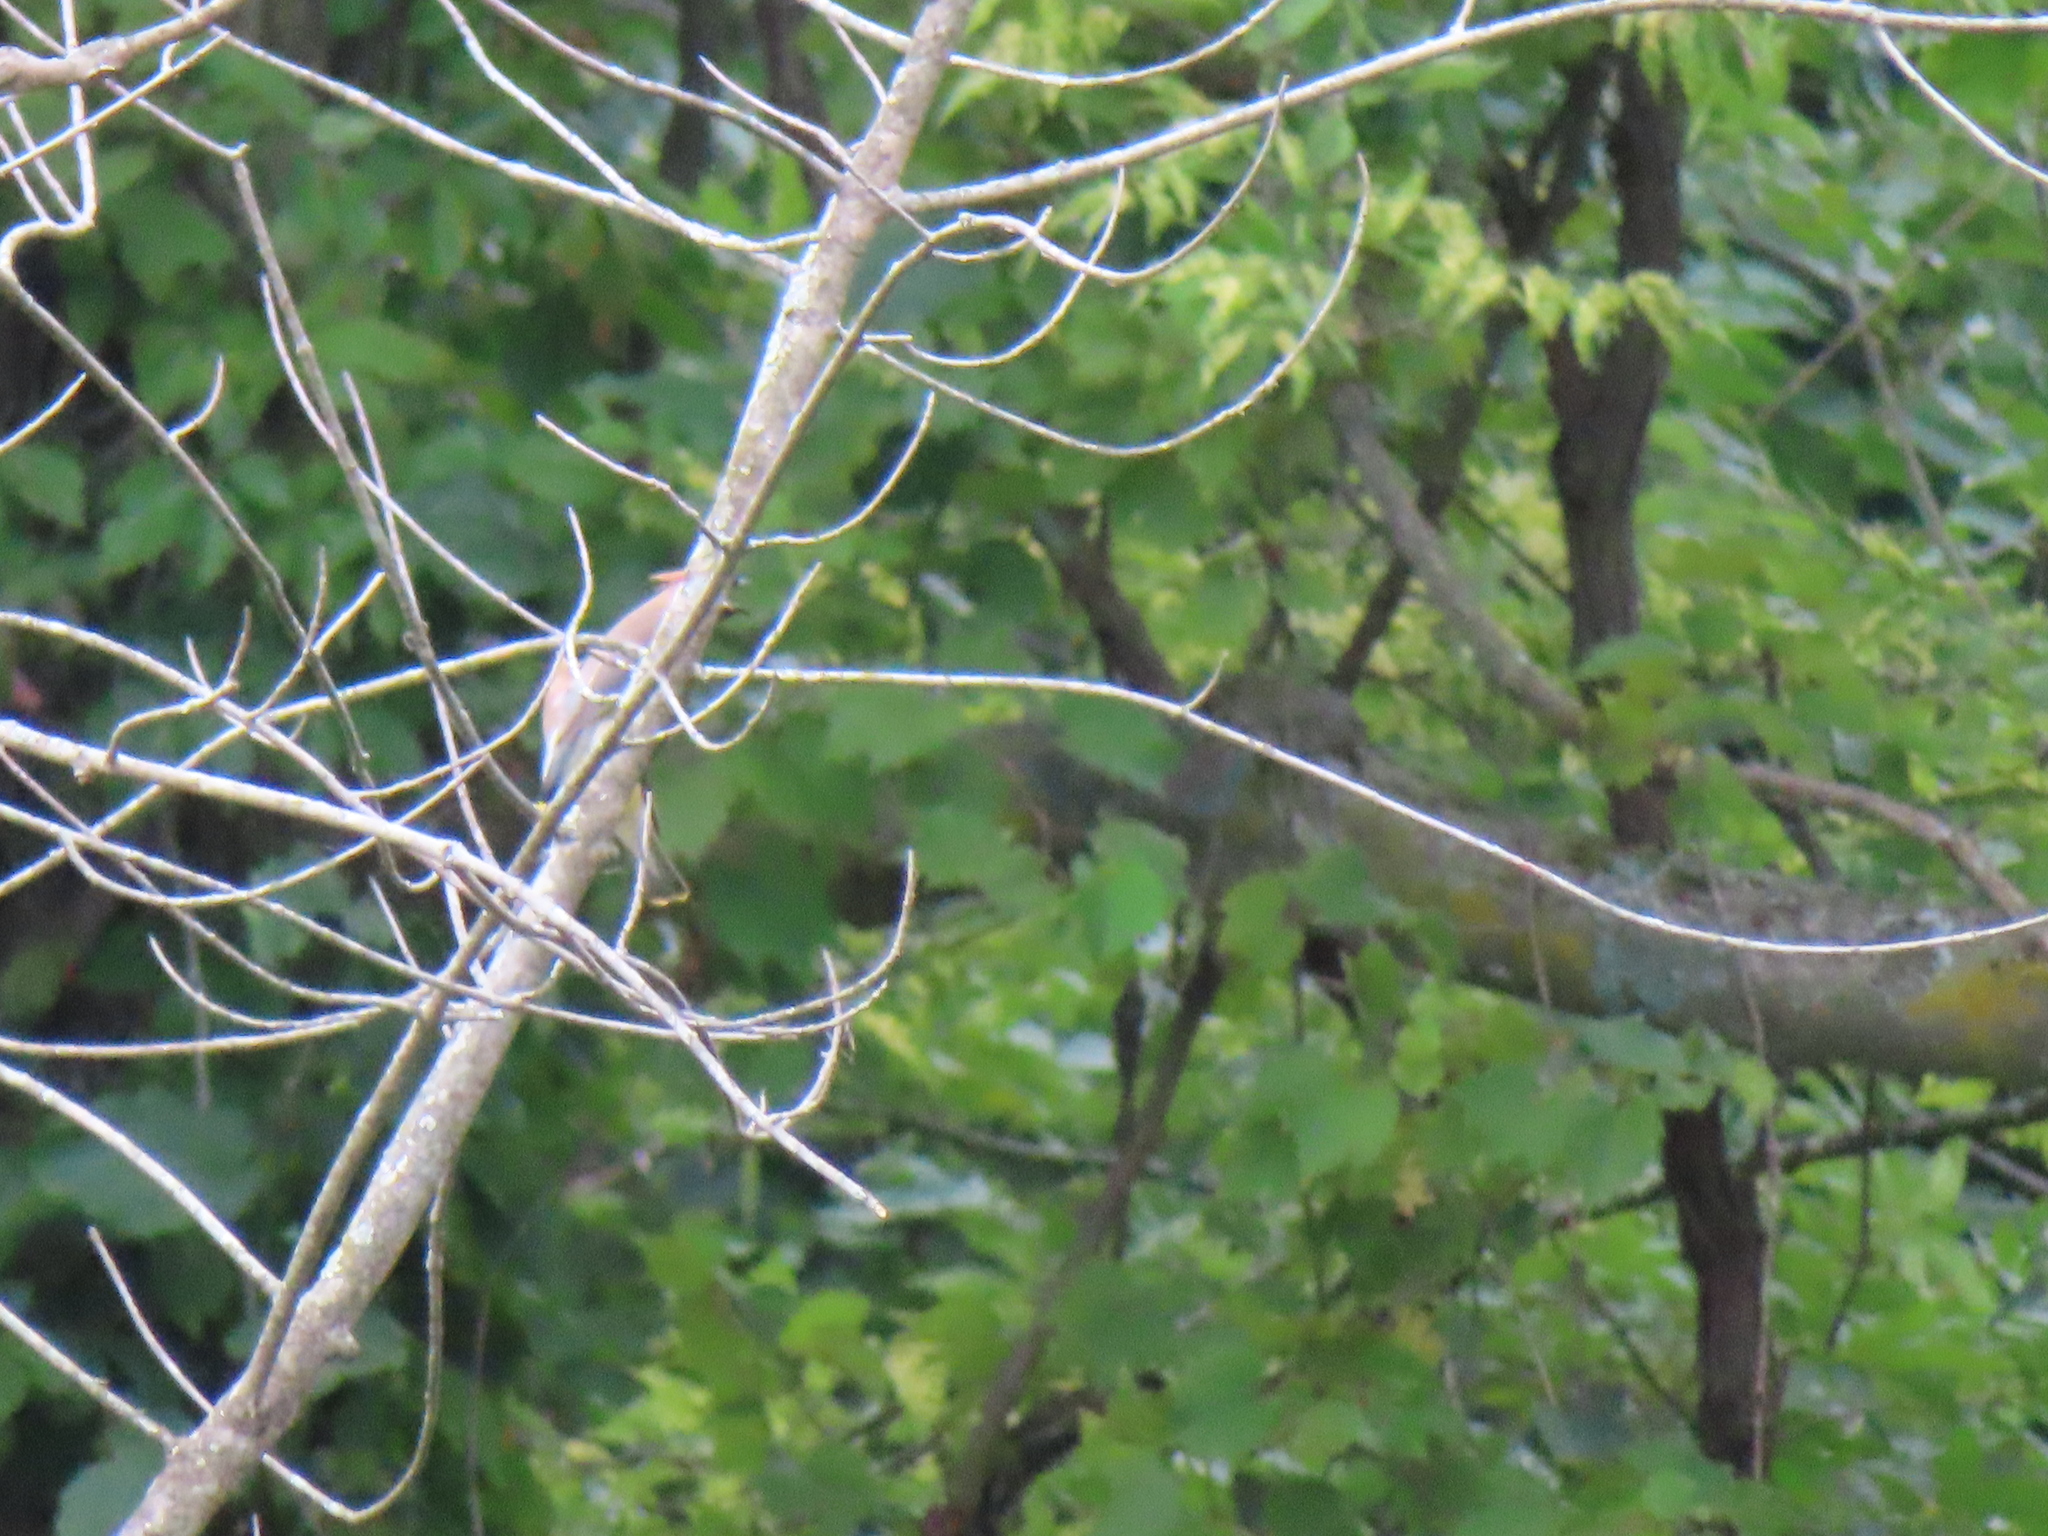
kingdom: Animalia
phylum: Chordata
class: Aves
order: Passeriformes
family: Bombycillidae
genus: Bombycilla
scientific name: Bombycilla cedrorum
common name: Cedar waxwing
